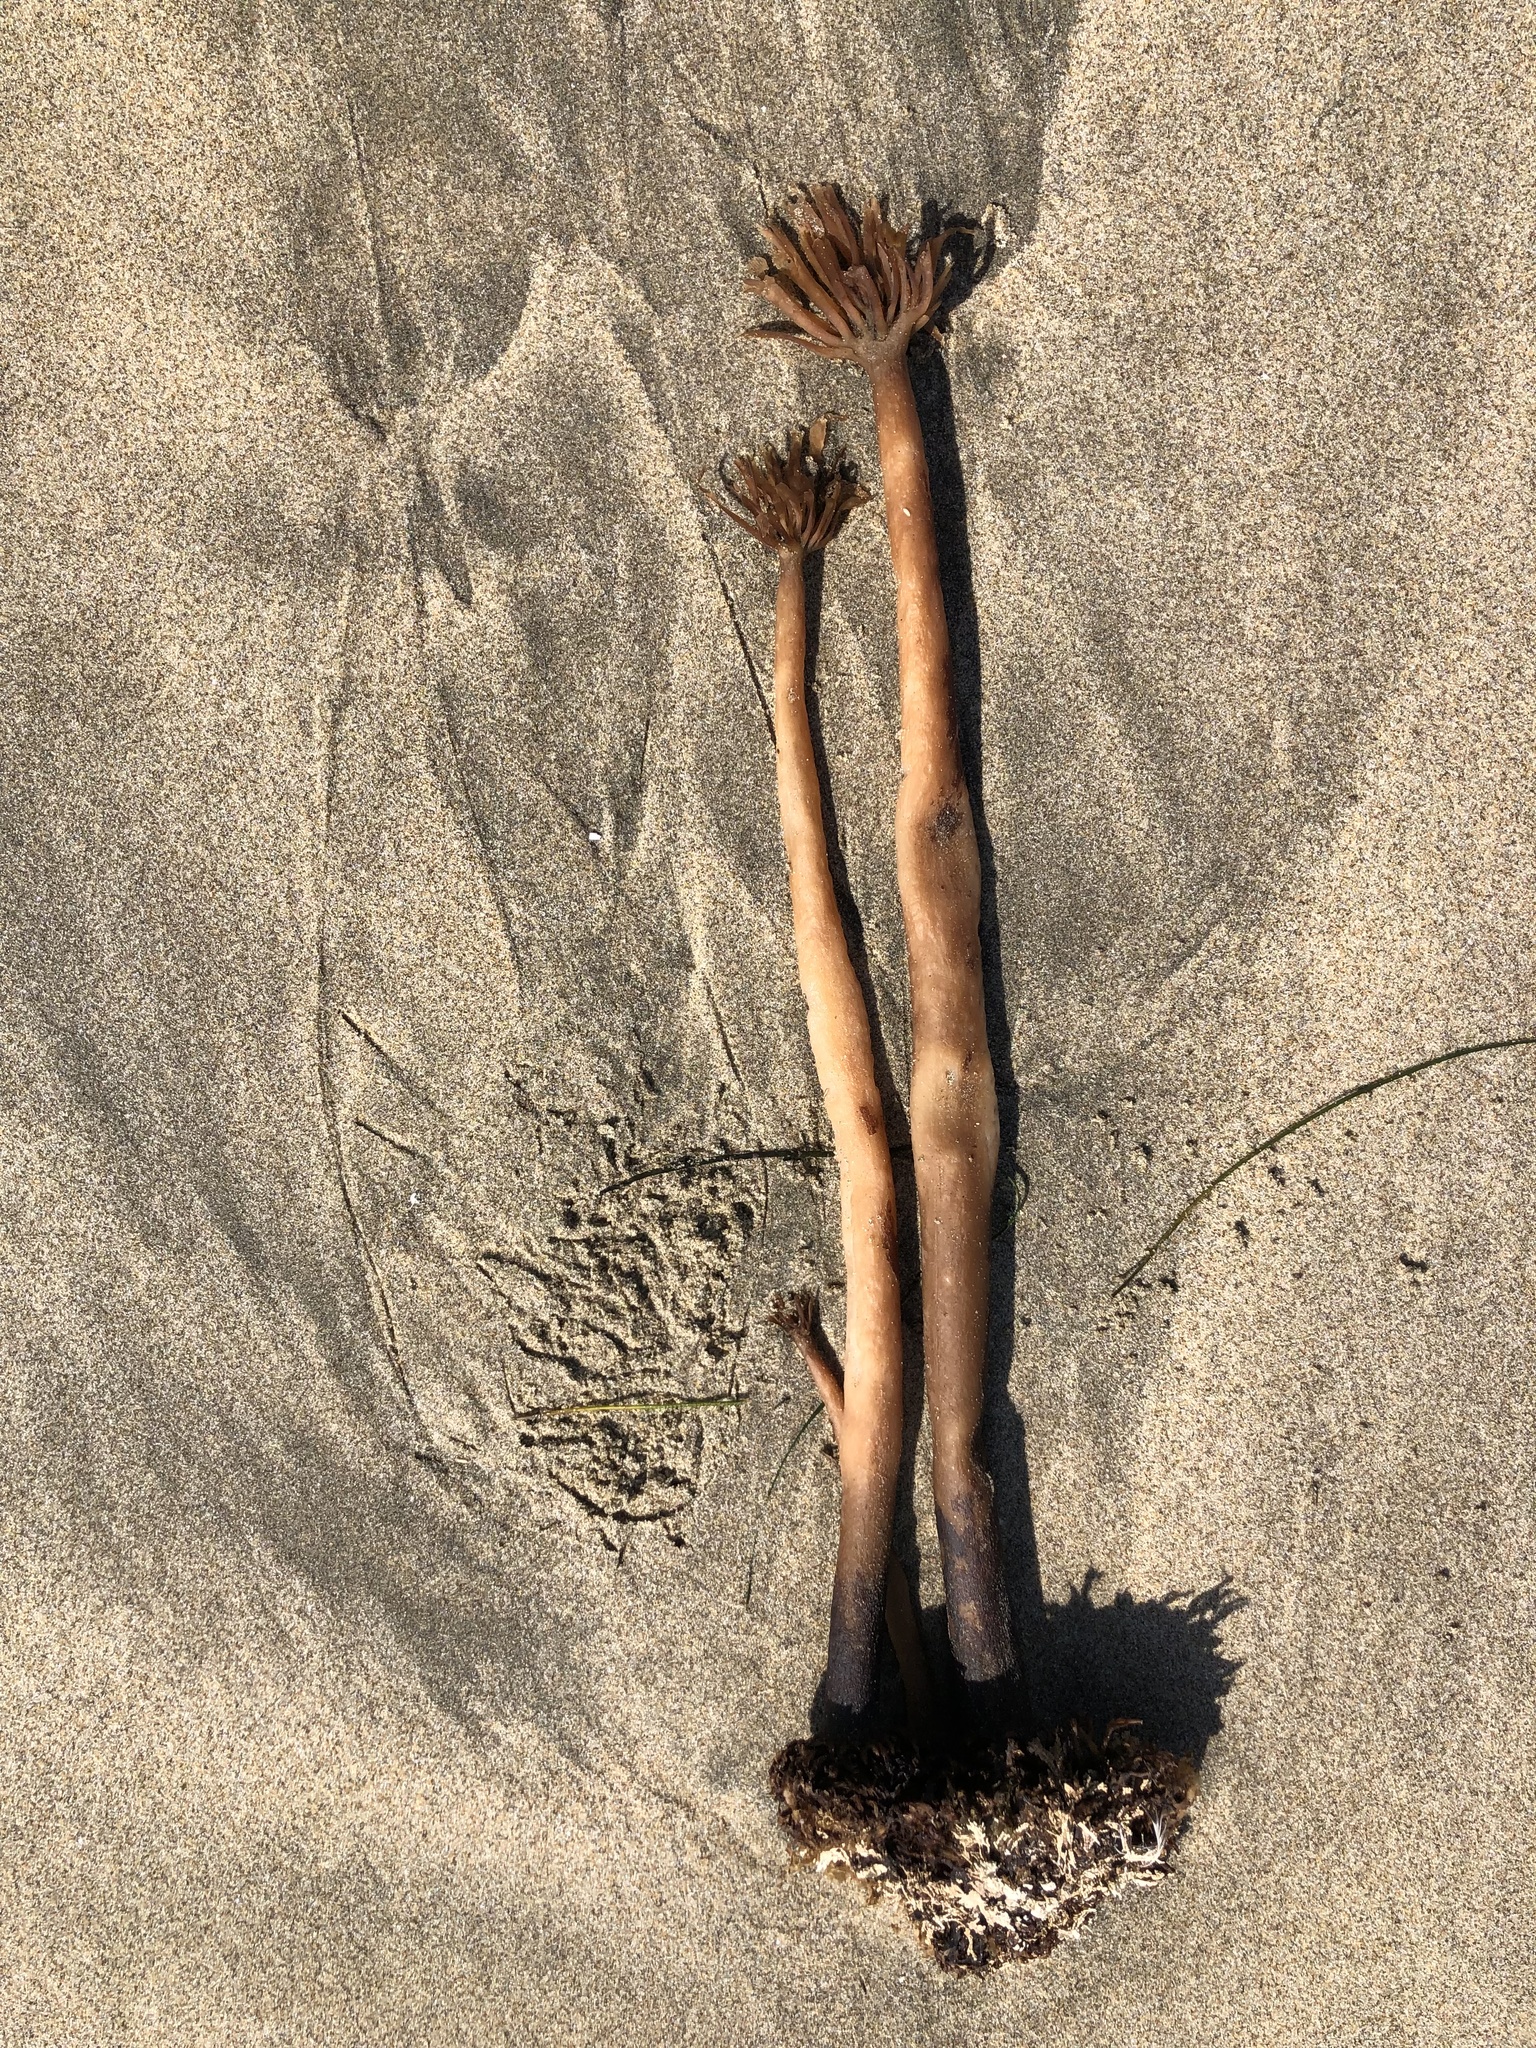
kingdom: Chromista
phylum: Ochrophyta
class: Phaeophyceae
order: Laminariales
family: Laminariaceae
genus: Postelsia
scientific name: Postelsia palmiformis
